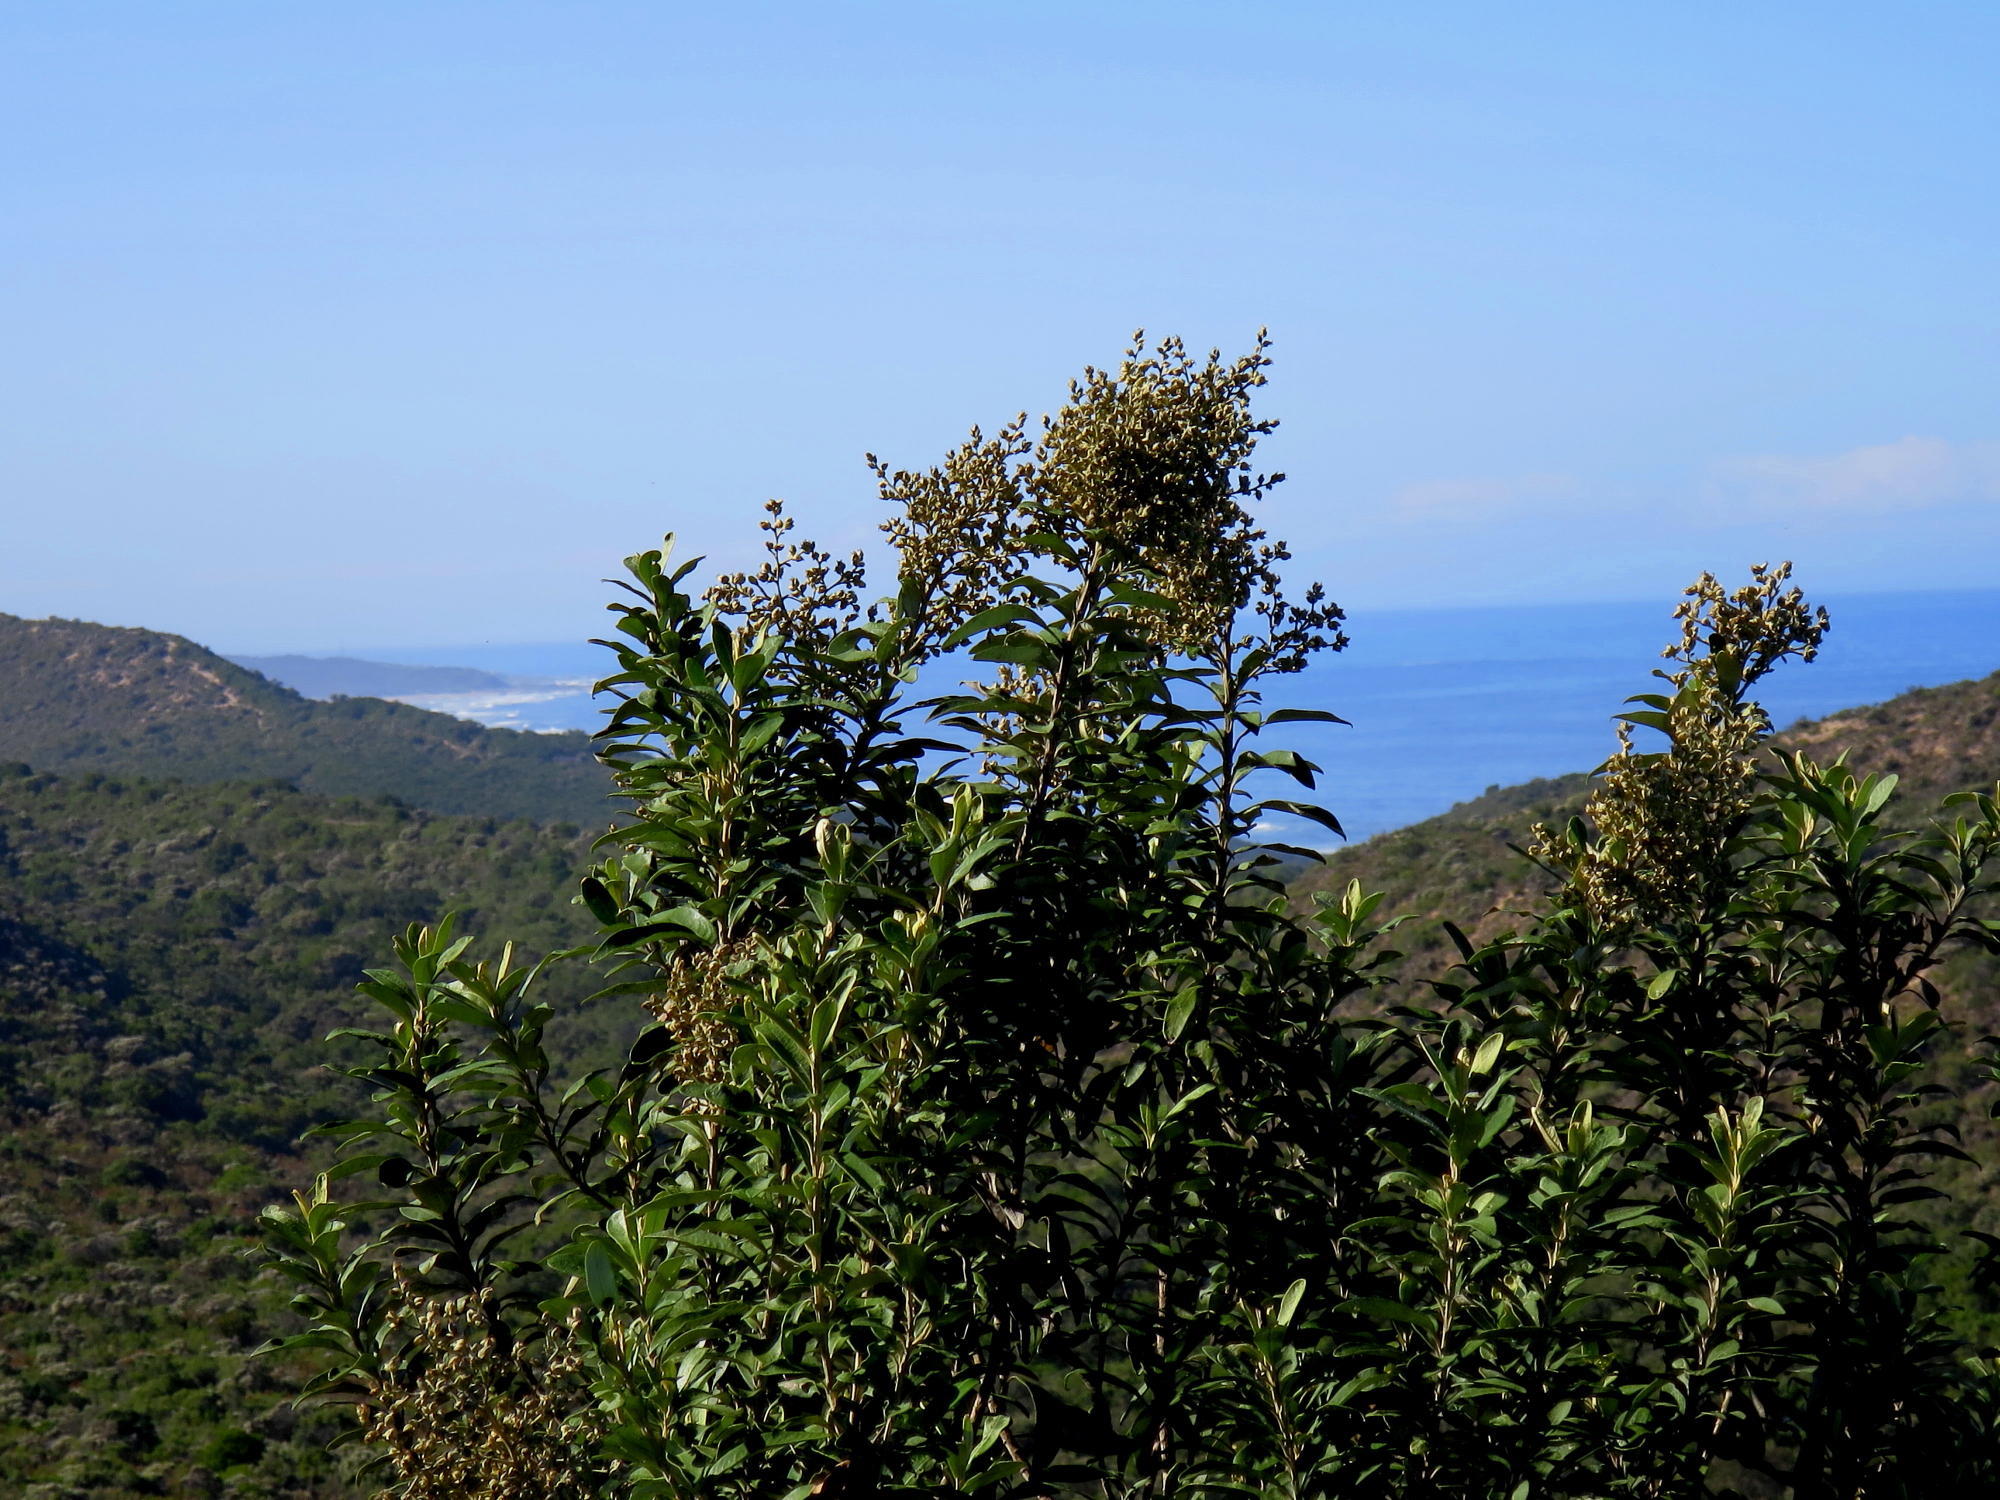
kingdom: Plantae
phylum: Tracheophyta
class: Magnoliopsida
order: Asterales
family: Asteraceae
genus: Tarchonanthus
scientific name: Tarchonanthus littoralis
